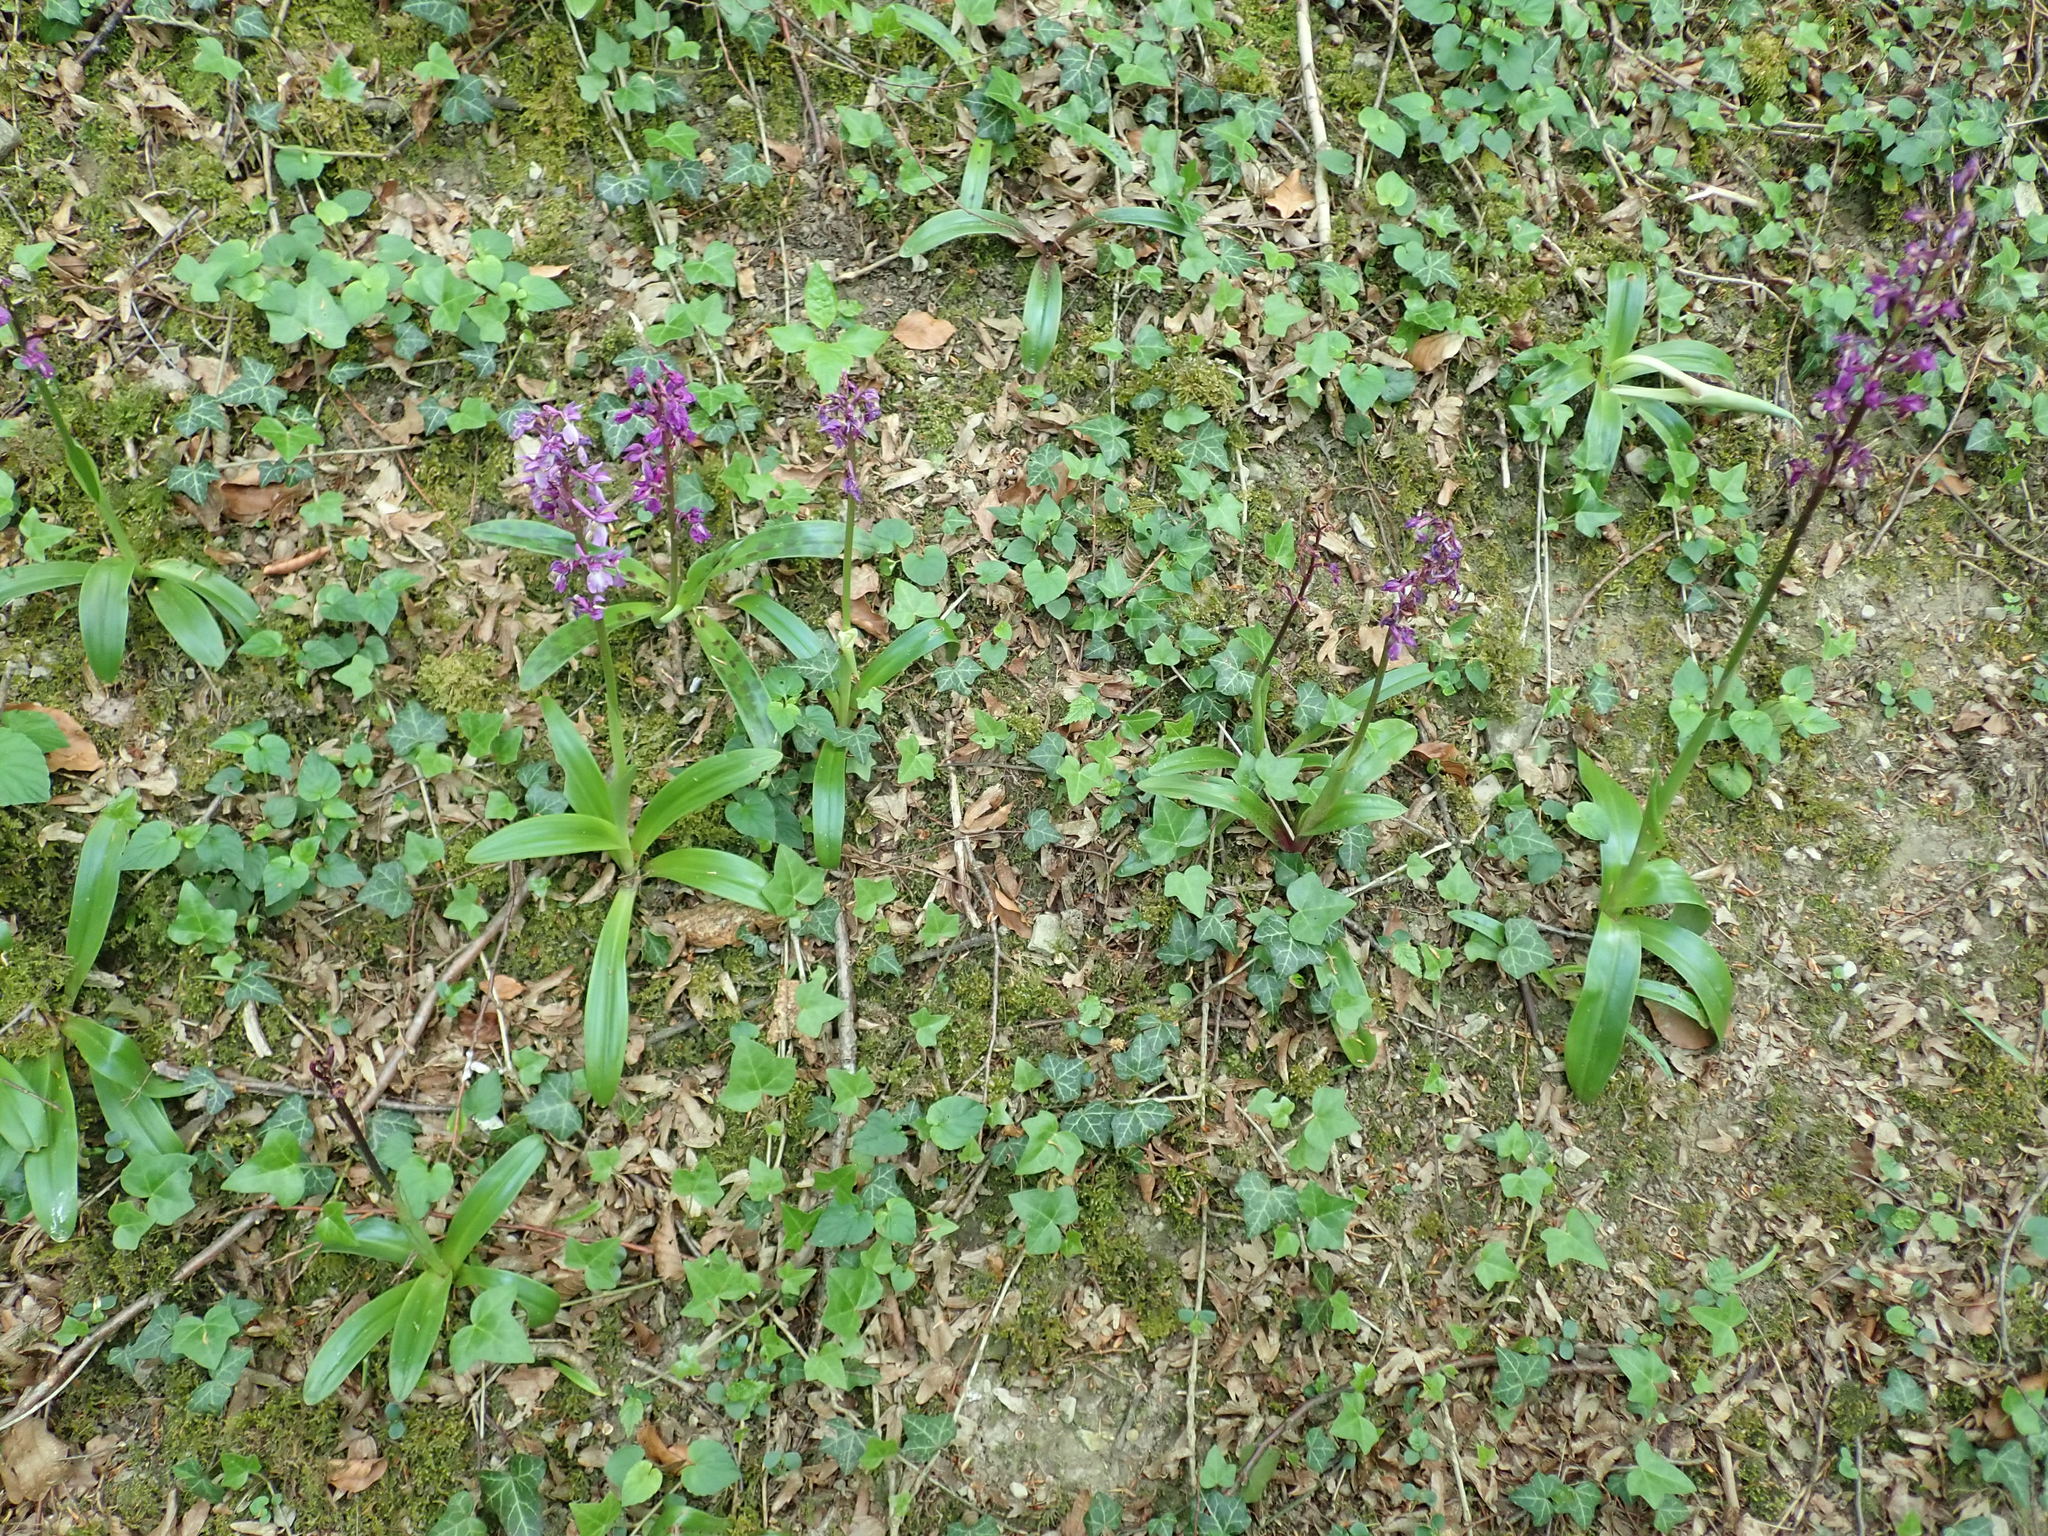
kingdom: Plantae
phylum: Tracheophyta
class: Liliopsida
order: Asparagales
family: Orchidaceae
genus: Orchis
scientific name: Orchis mascula
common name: Early-purple orchid
